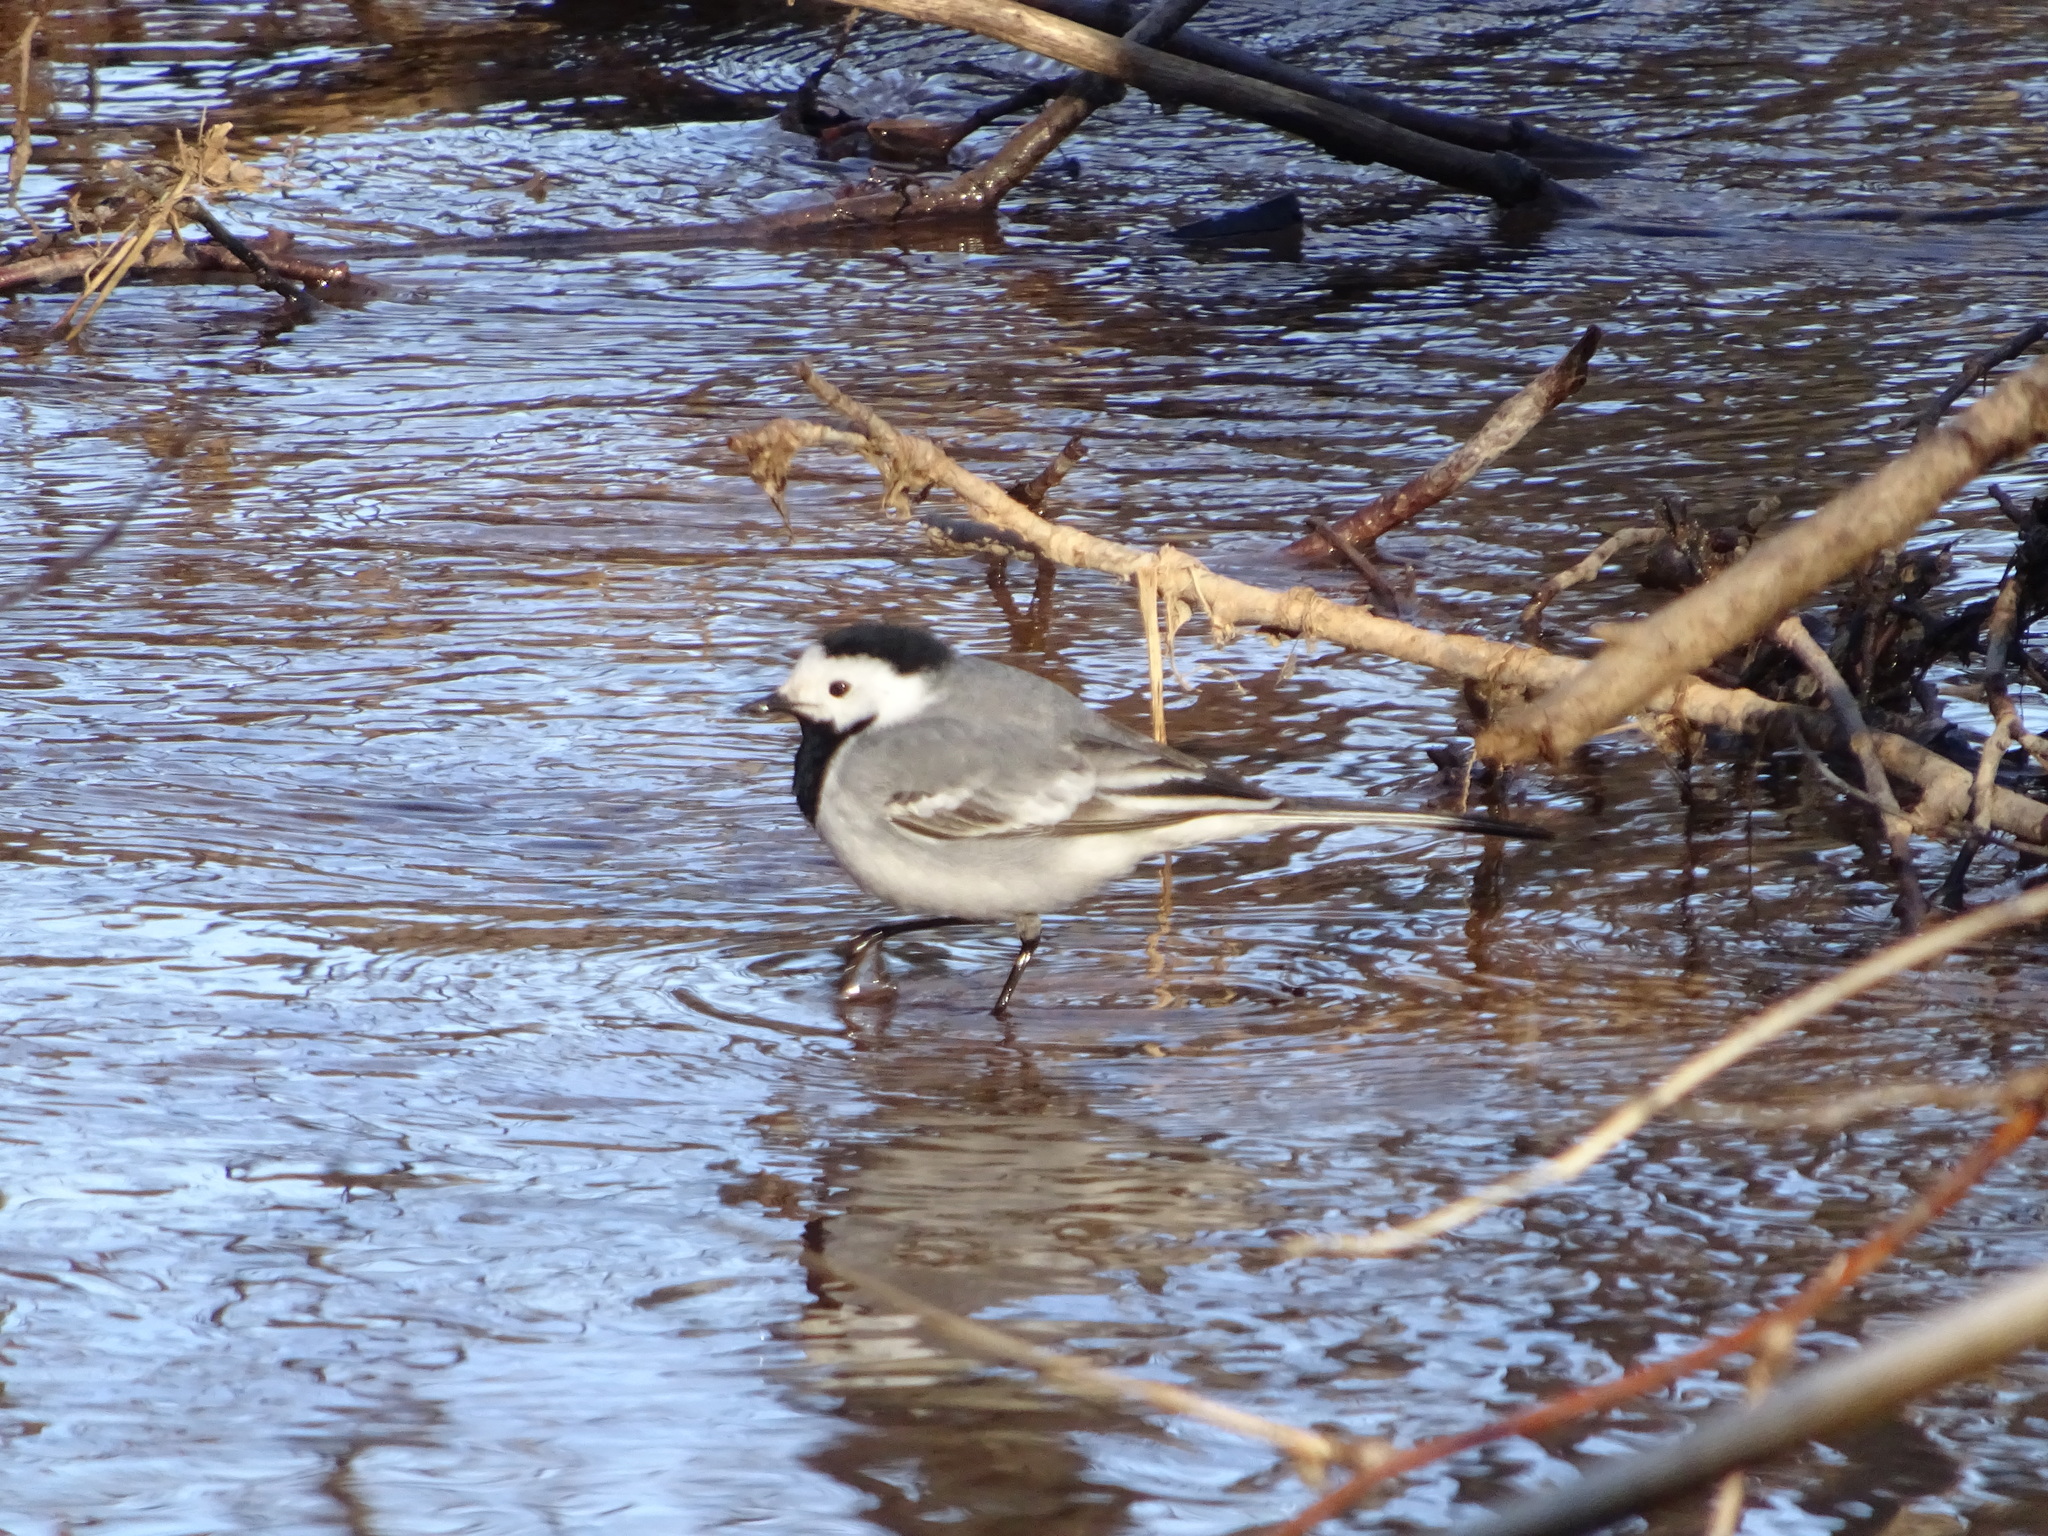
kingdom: Animalia
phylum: Chordata
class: Aves
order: Passeriformes
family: Motacillidae
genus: Motacilla
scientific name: Motacilla alba
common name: White wagtail
